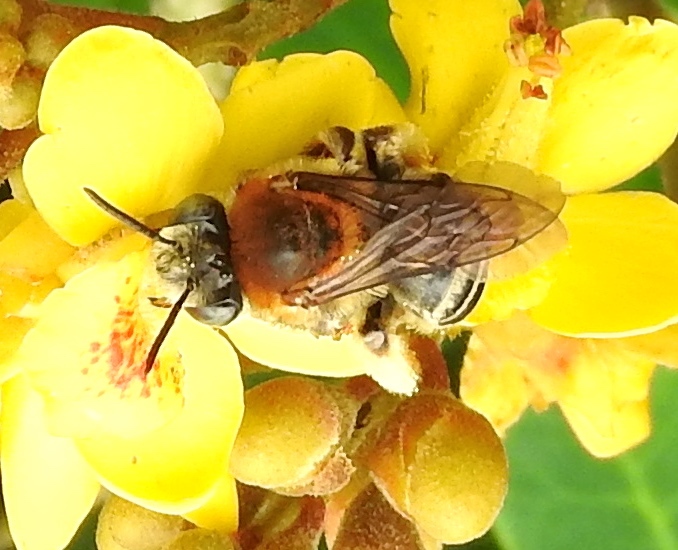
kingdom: Animalia
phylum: Arthropoda
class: Insecta
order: Hymenoptera
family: Apidae
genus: Melissodes
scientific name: Melissodes
